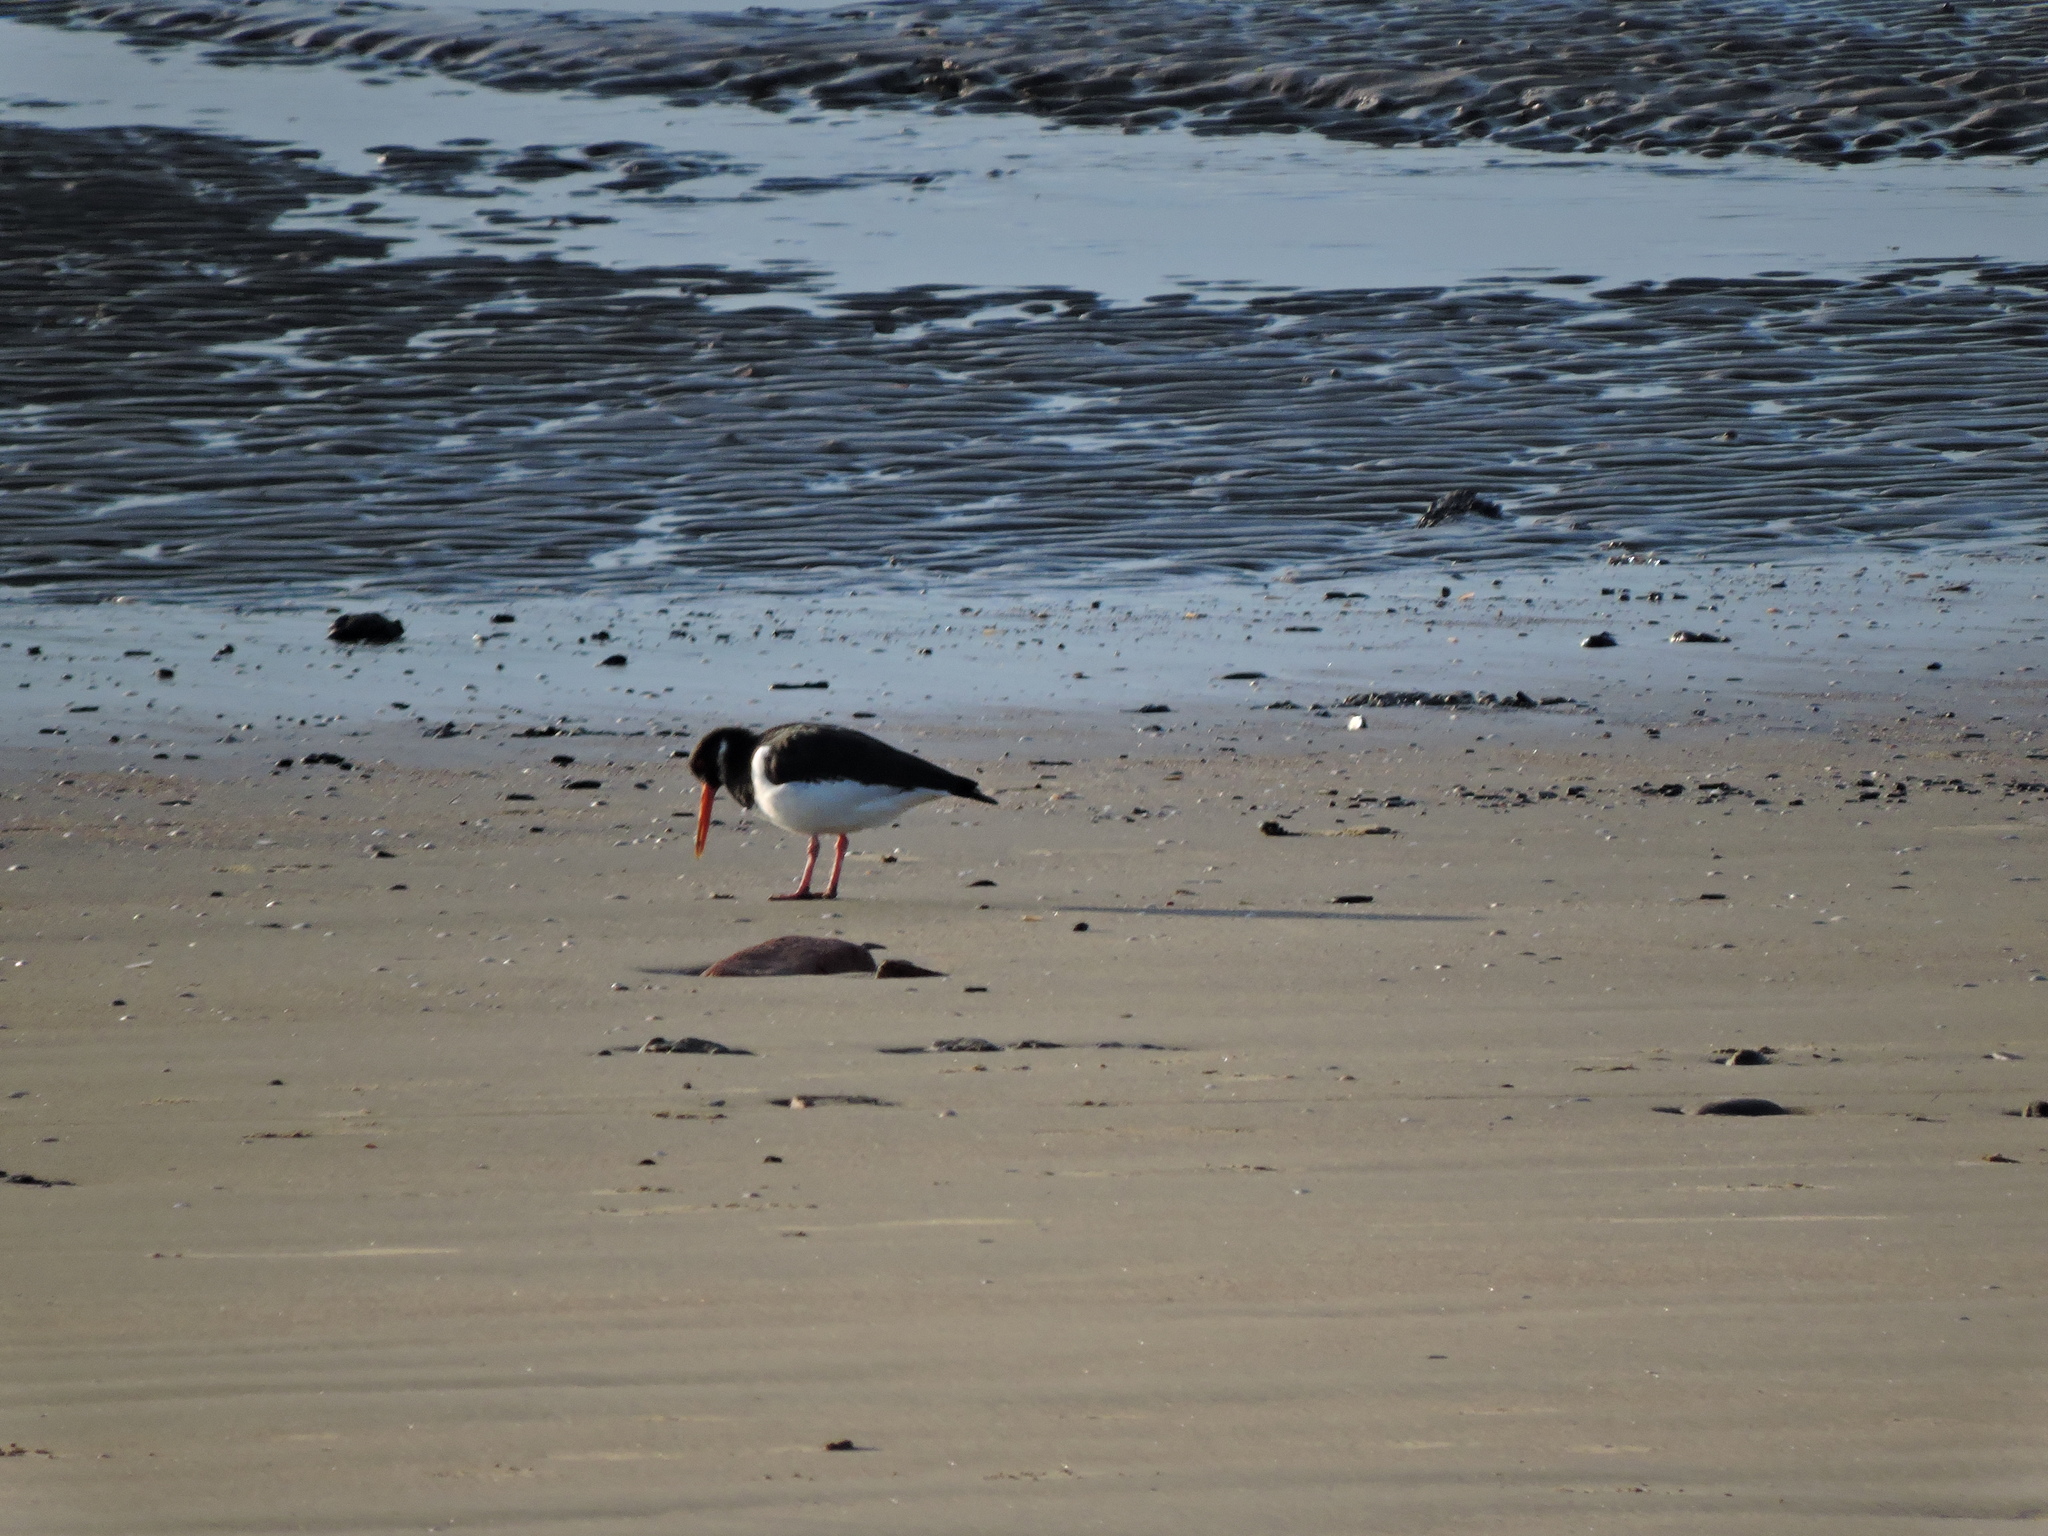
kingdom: Animalia
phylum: Chordata
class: Aves
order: Charadriiformes
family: Haematopodidae
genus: Haematopus
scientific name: Haematopus ostralegus
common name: Eurasian oystercatcher
